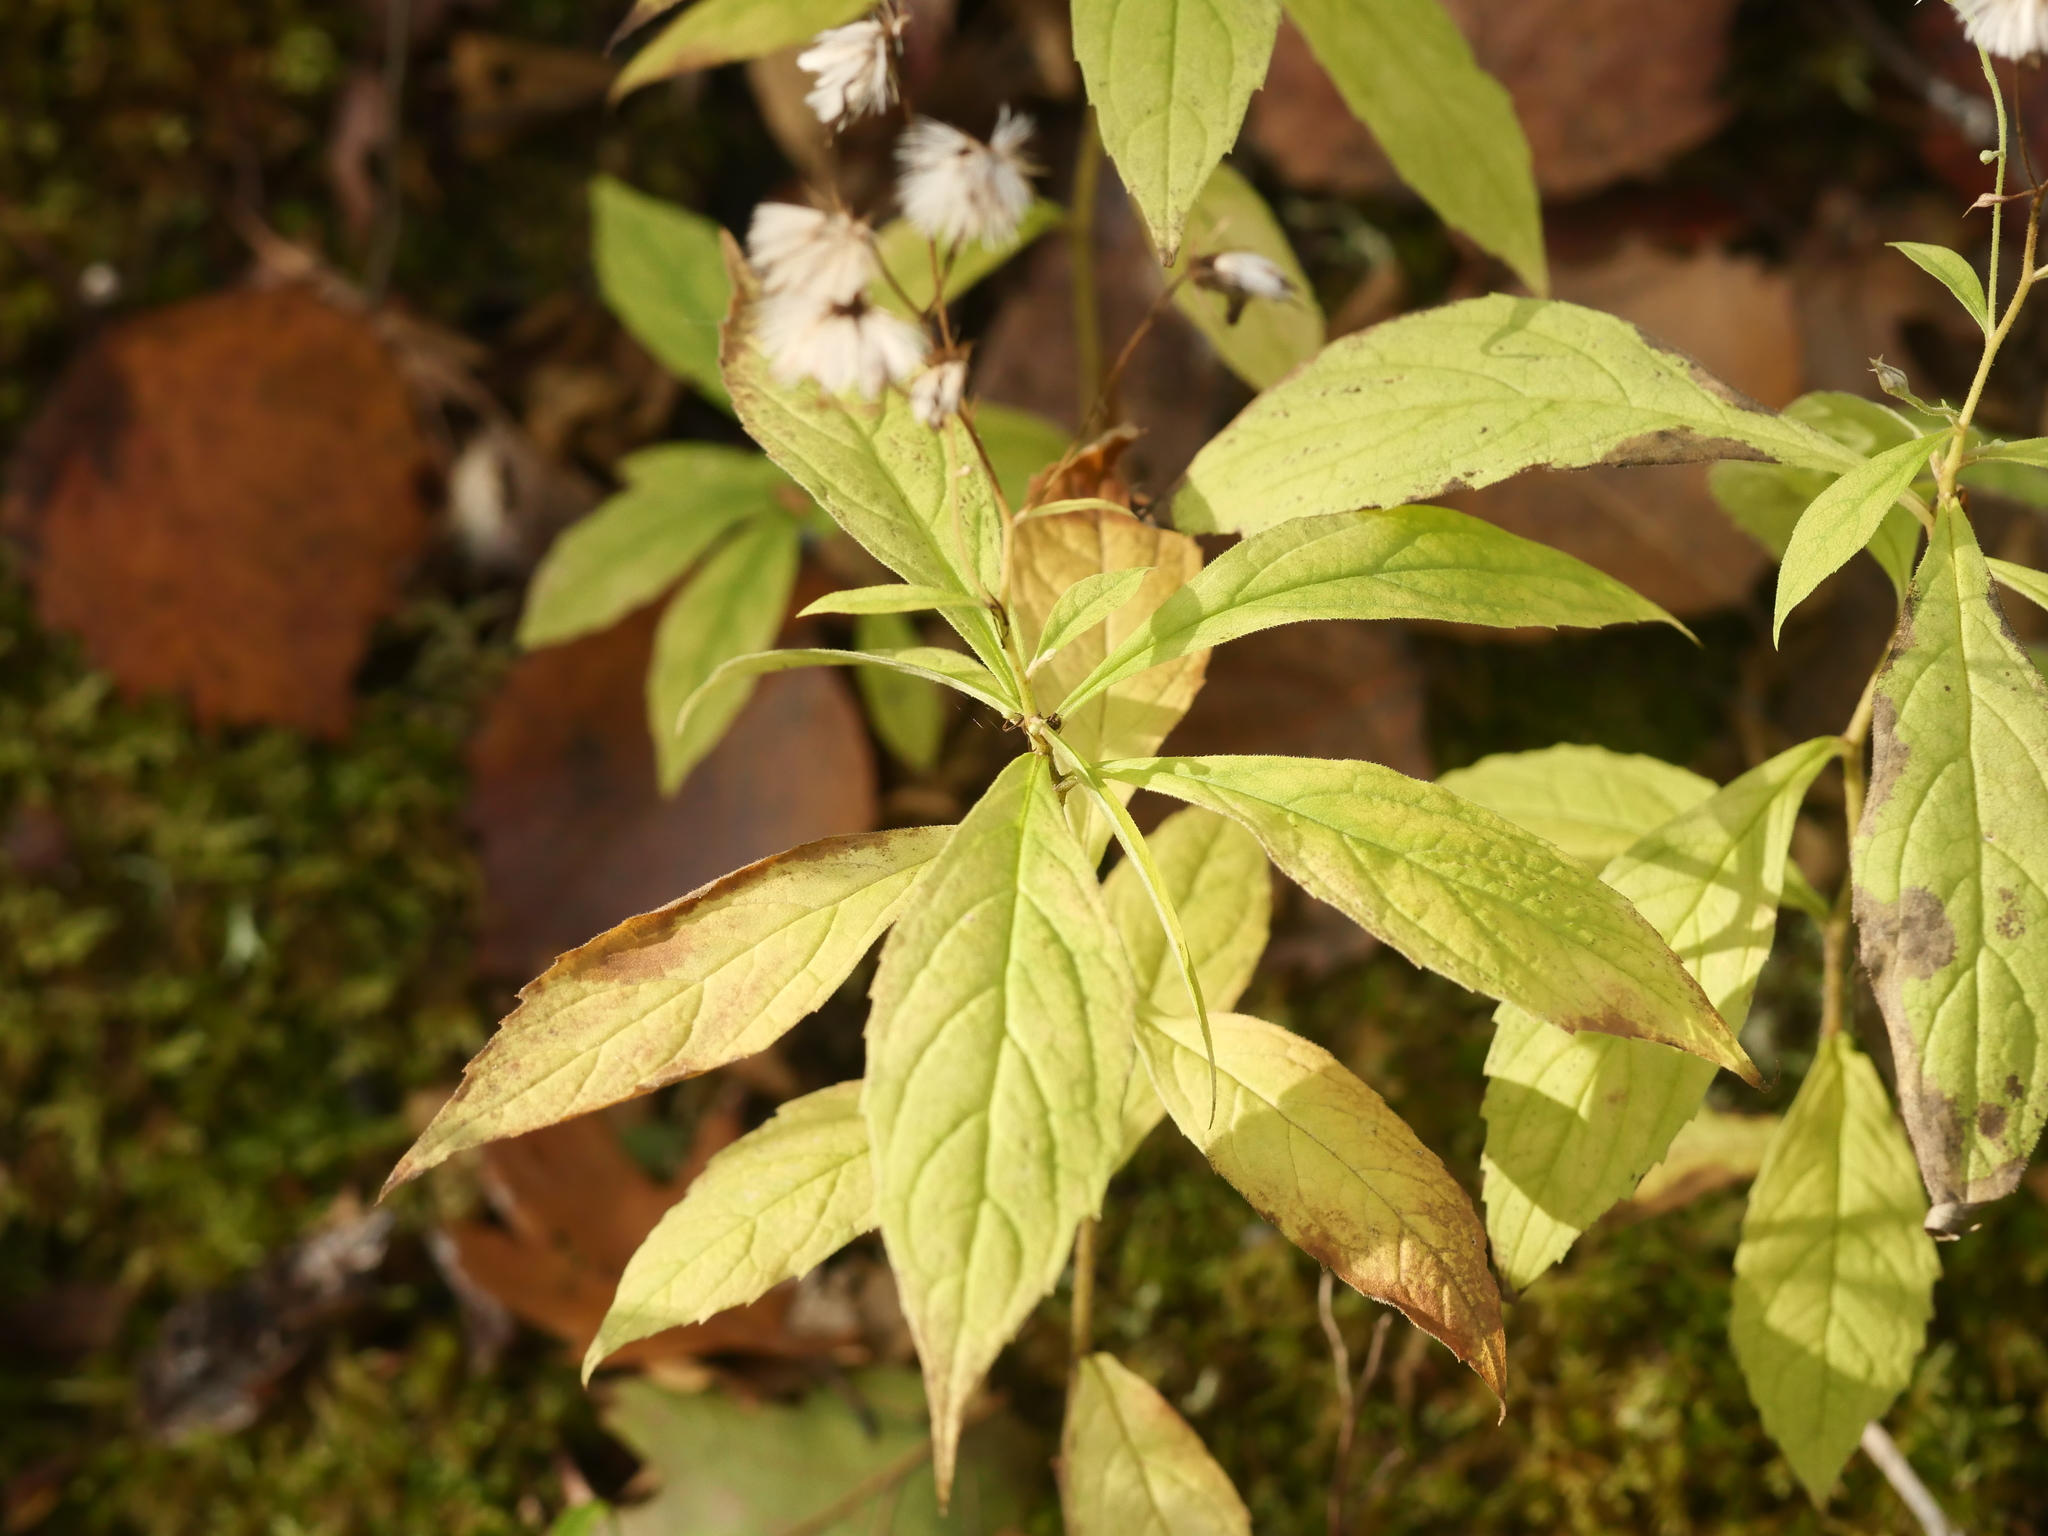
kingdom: Plantae
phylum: Tracheophyta
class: Magnoliopsida
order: Asterales
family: Asteraceae
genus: Oclemena
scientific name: Oclemena acuminata
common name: Mountain aster
